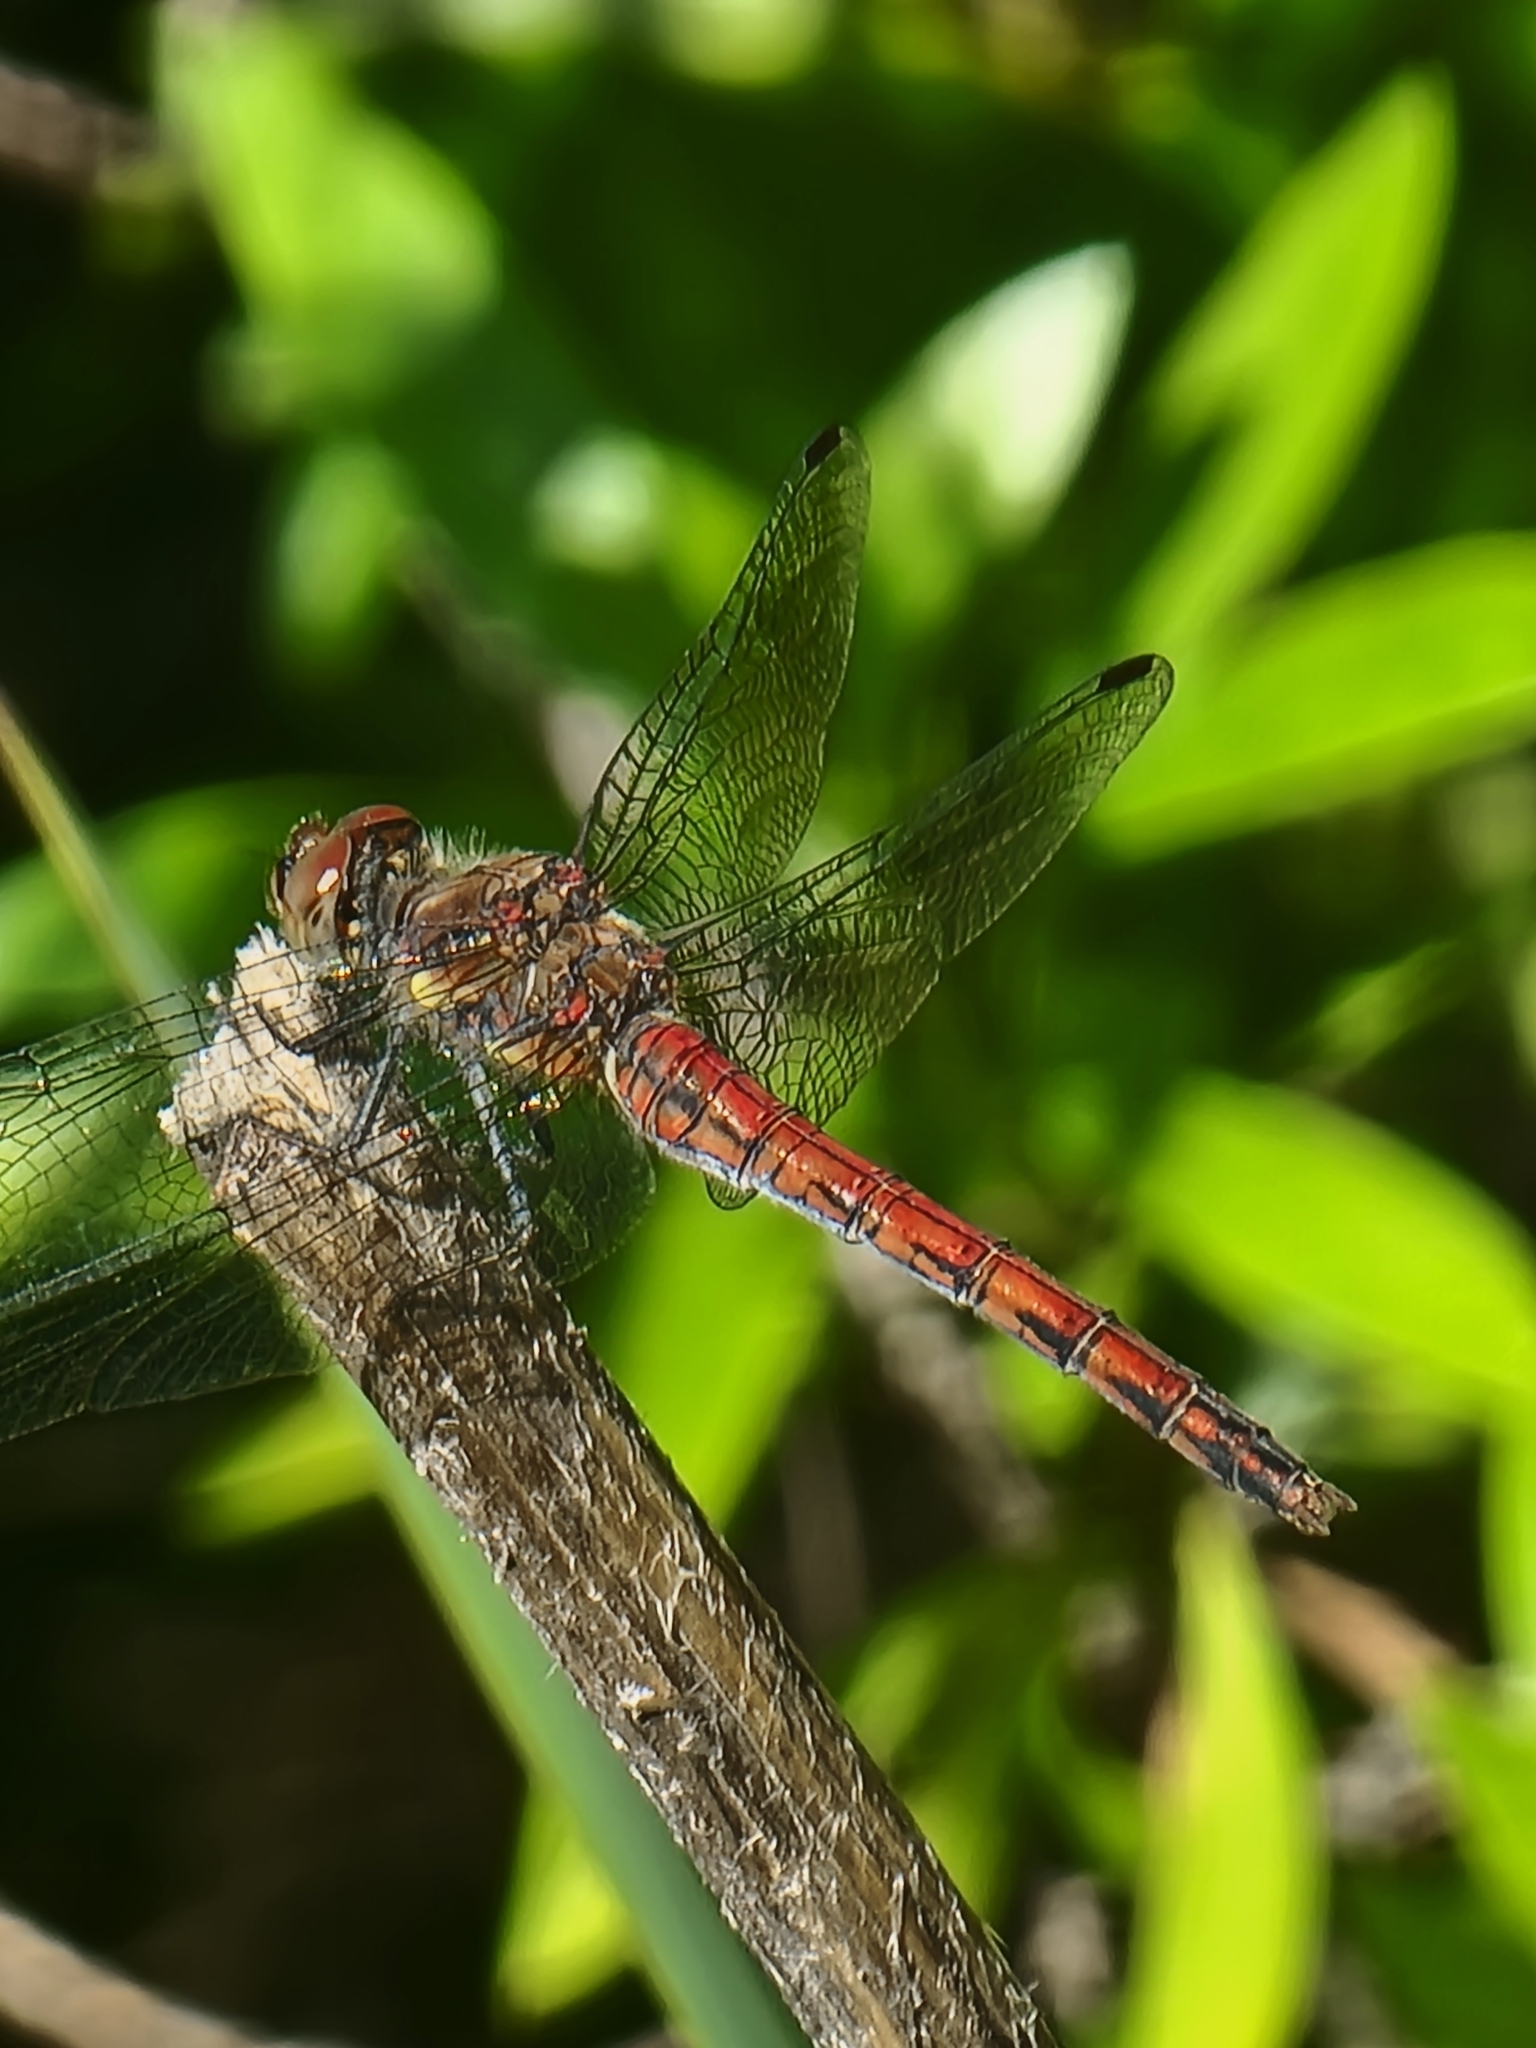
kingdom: Animalia
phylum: Arthropoda
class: Insecta
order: Odonata
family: Libellulidae
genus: Sympetrum
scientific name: Sympetrum nigrifemur
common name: Island darter
